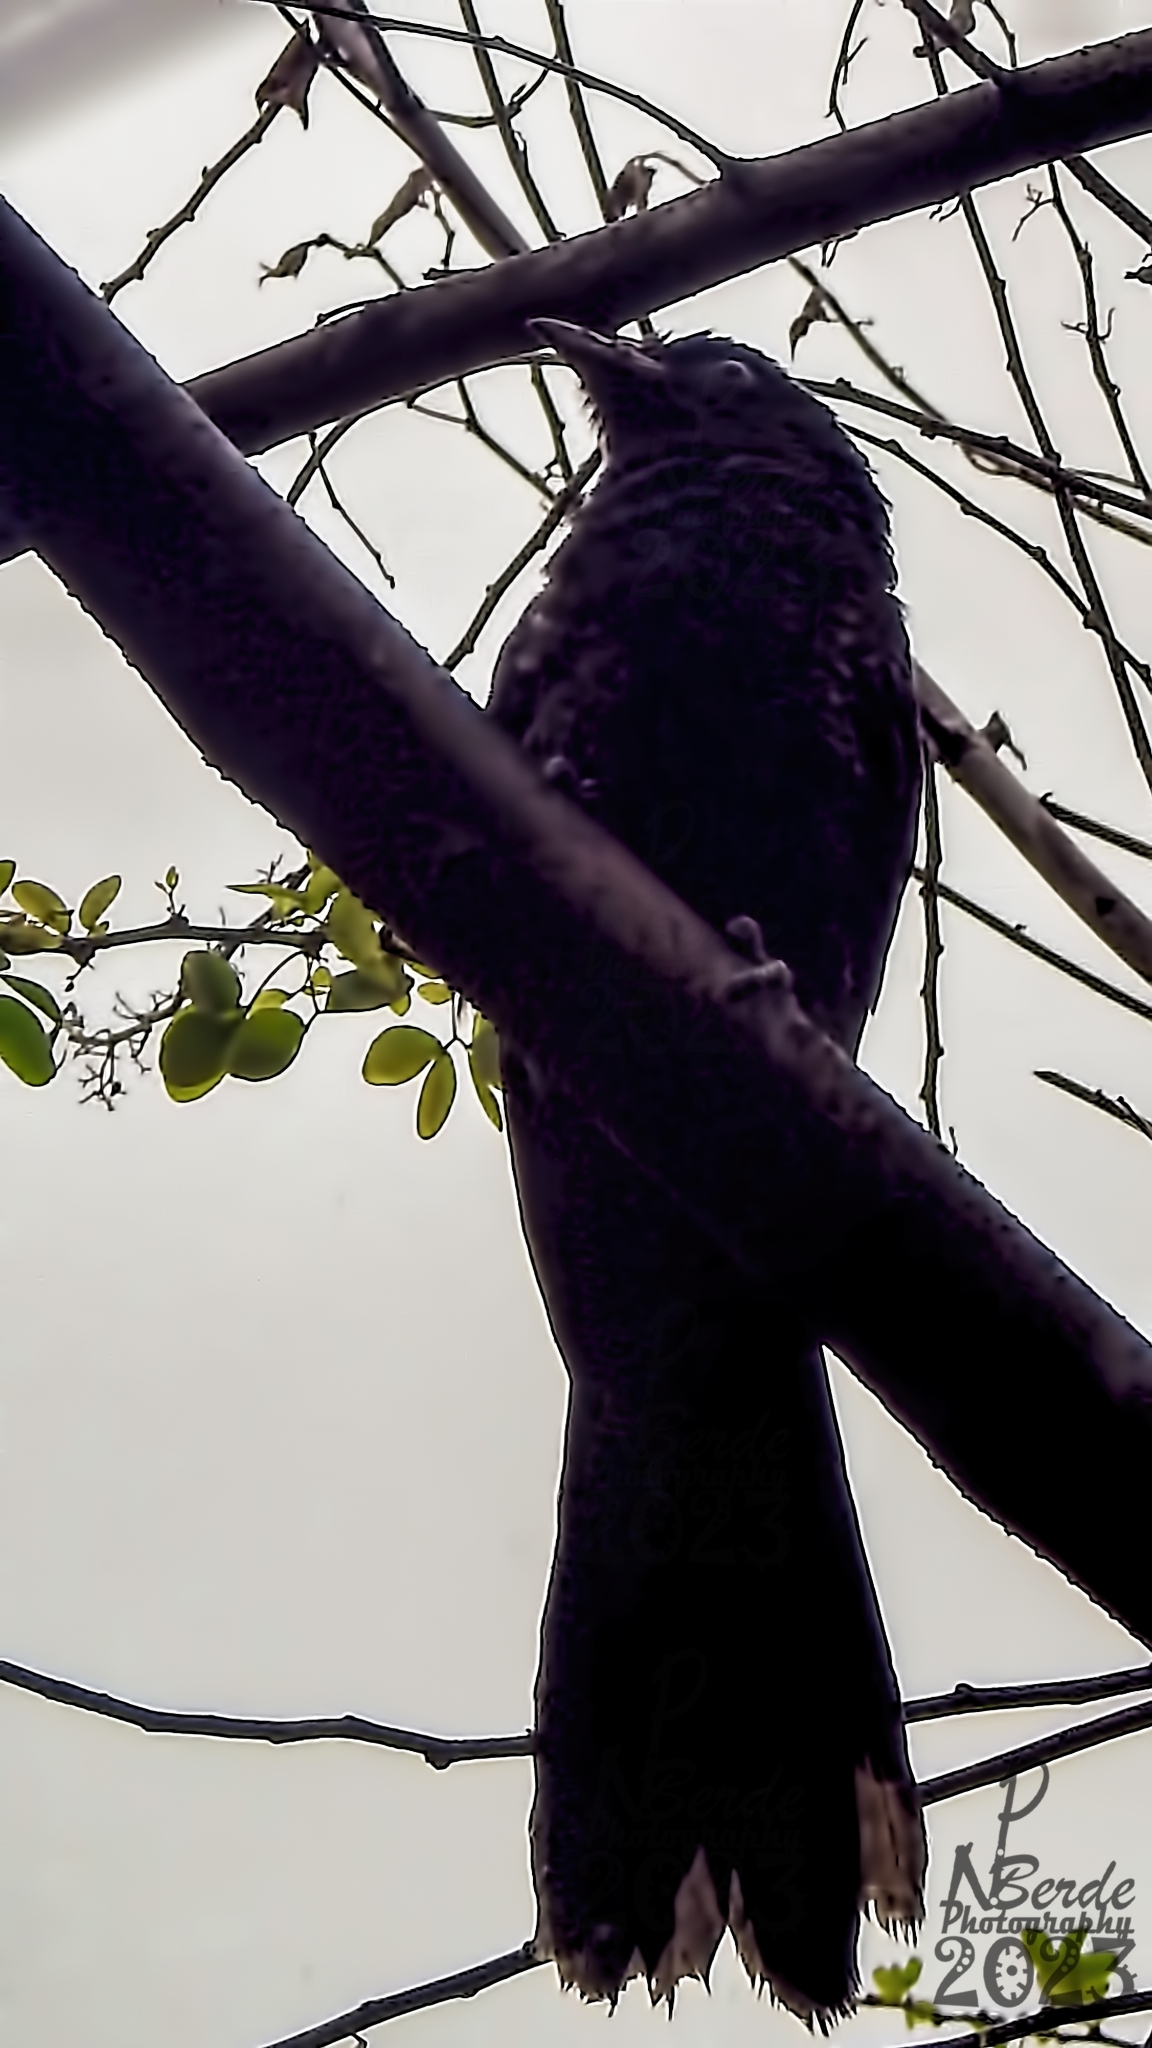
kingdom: Animalia
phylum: Chordata
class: Aves
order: Cuculiformes
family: Cuculidae
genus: Eudynamys
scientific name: Eudynamys scolopaceus
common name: Asian koel
